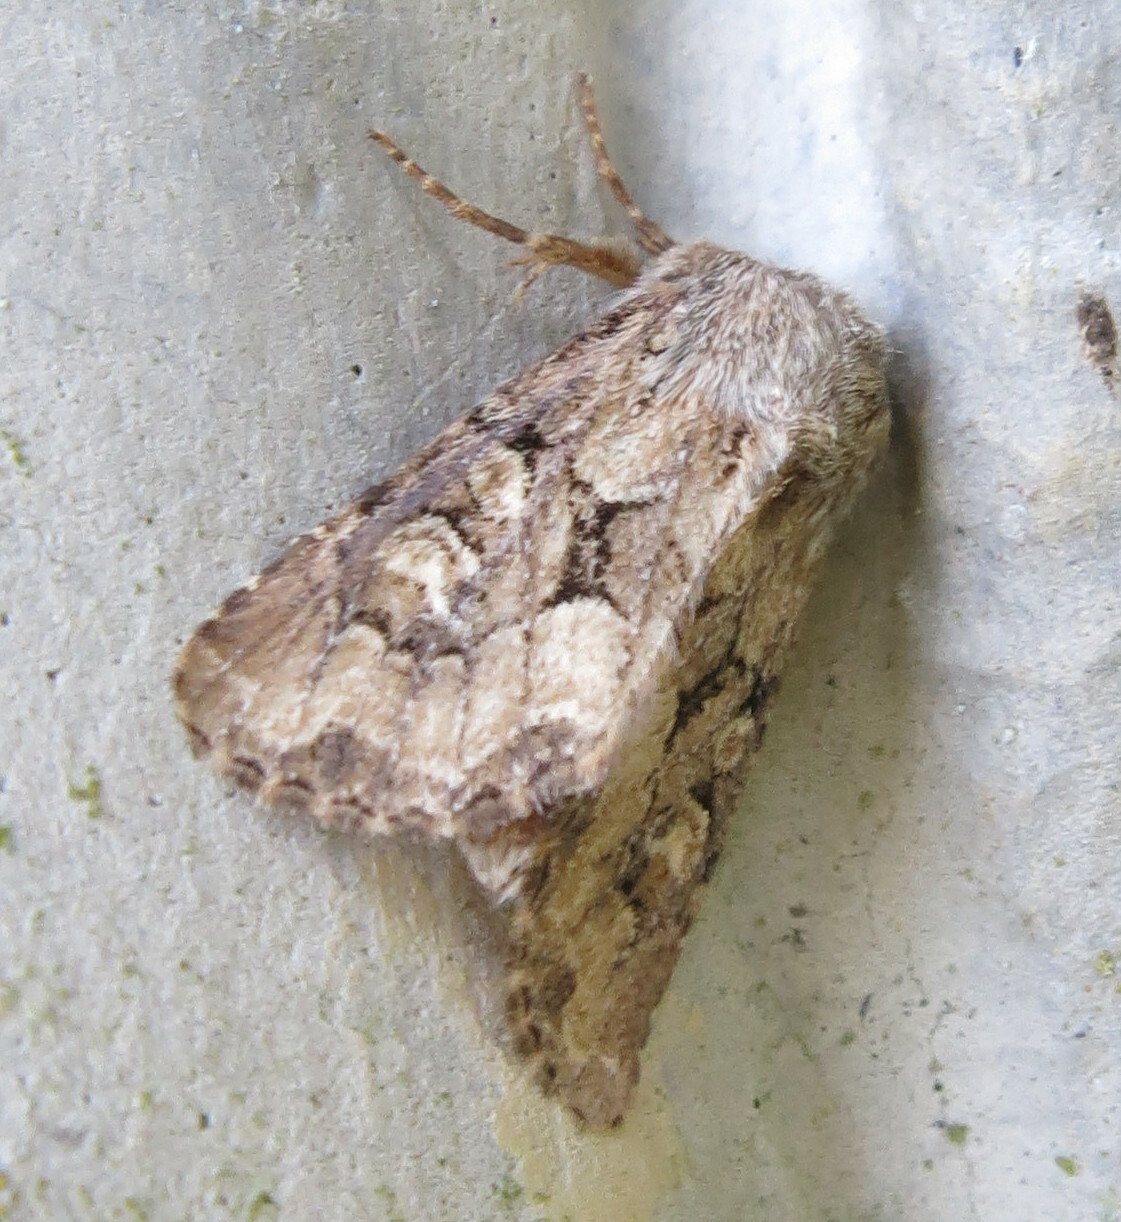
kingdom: Animalia
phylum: Arthropoda
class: Insecta
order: Lepidoptera
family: Noctuidae
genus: Luperina
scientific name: Luperina testacea
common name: Flounced rustic
